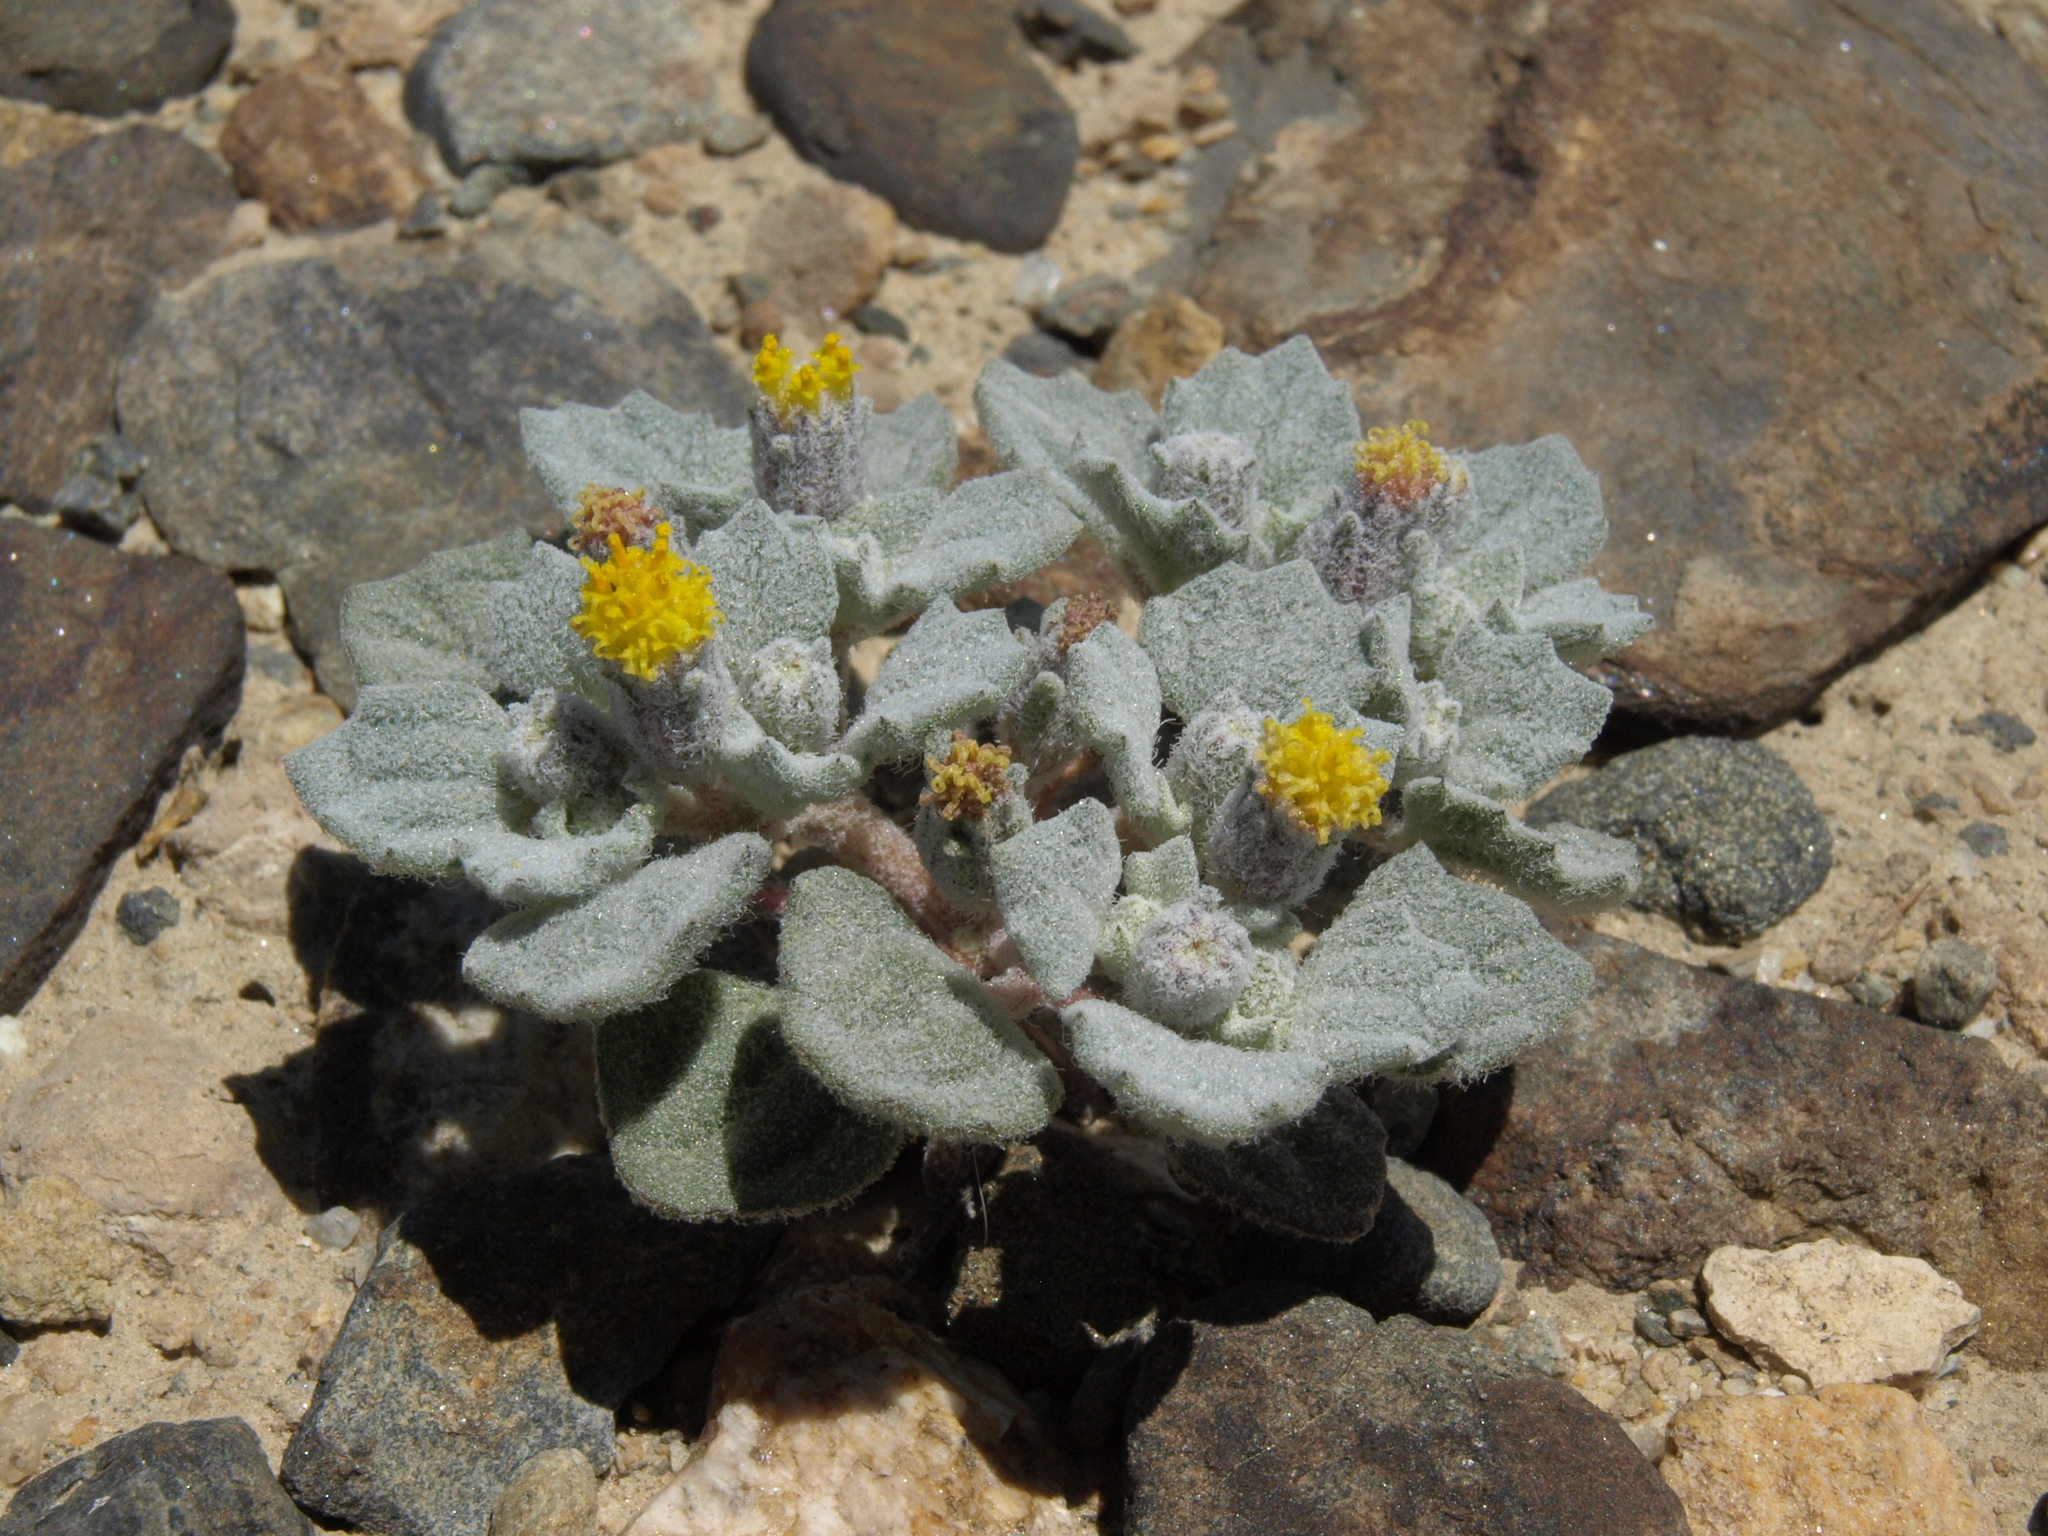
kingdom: Plantae
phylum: Tracheophyta
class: Magnoliopsida
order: Asterales
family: Asteraceae
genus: Psathyrotes
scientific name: Psathyrotes annua
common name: Mealy rosettes
